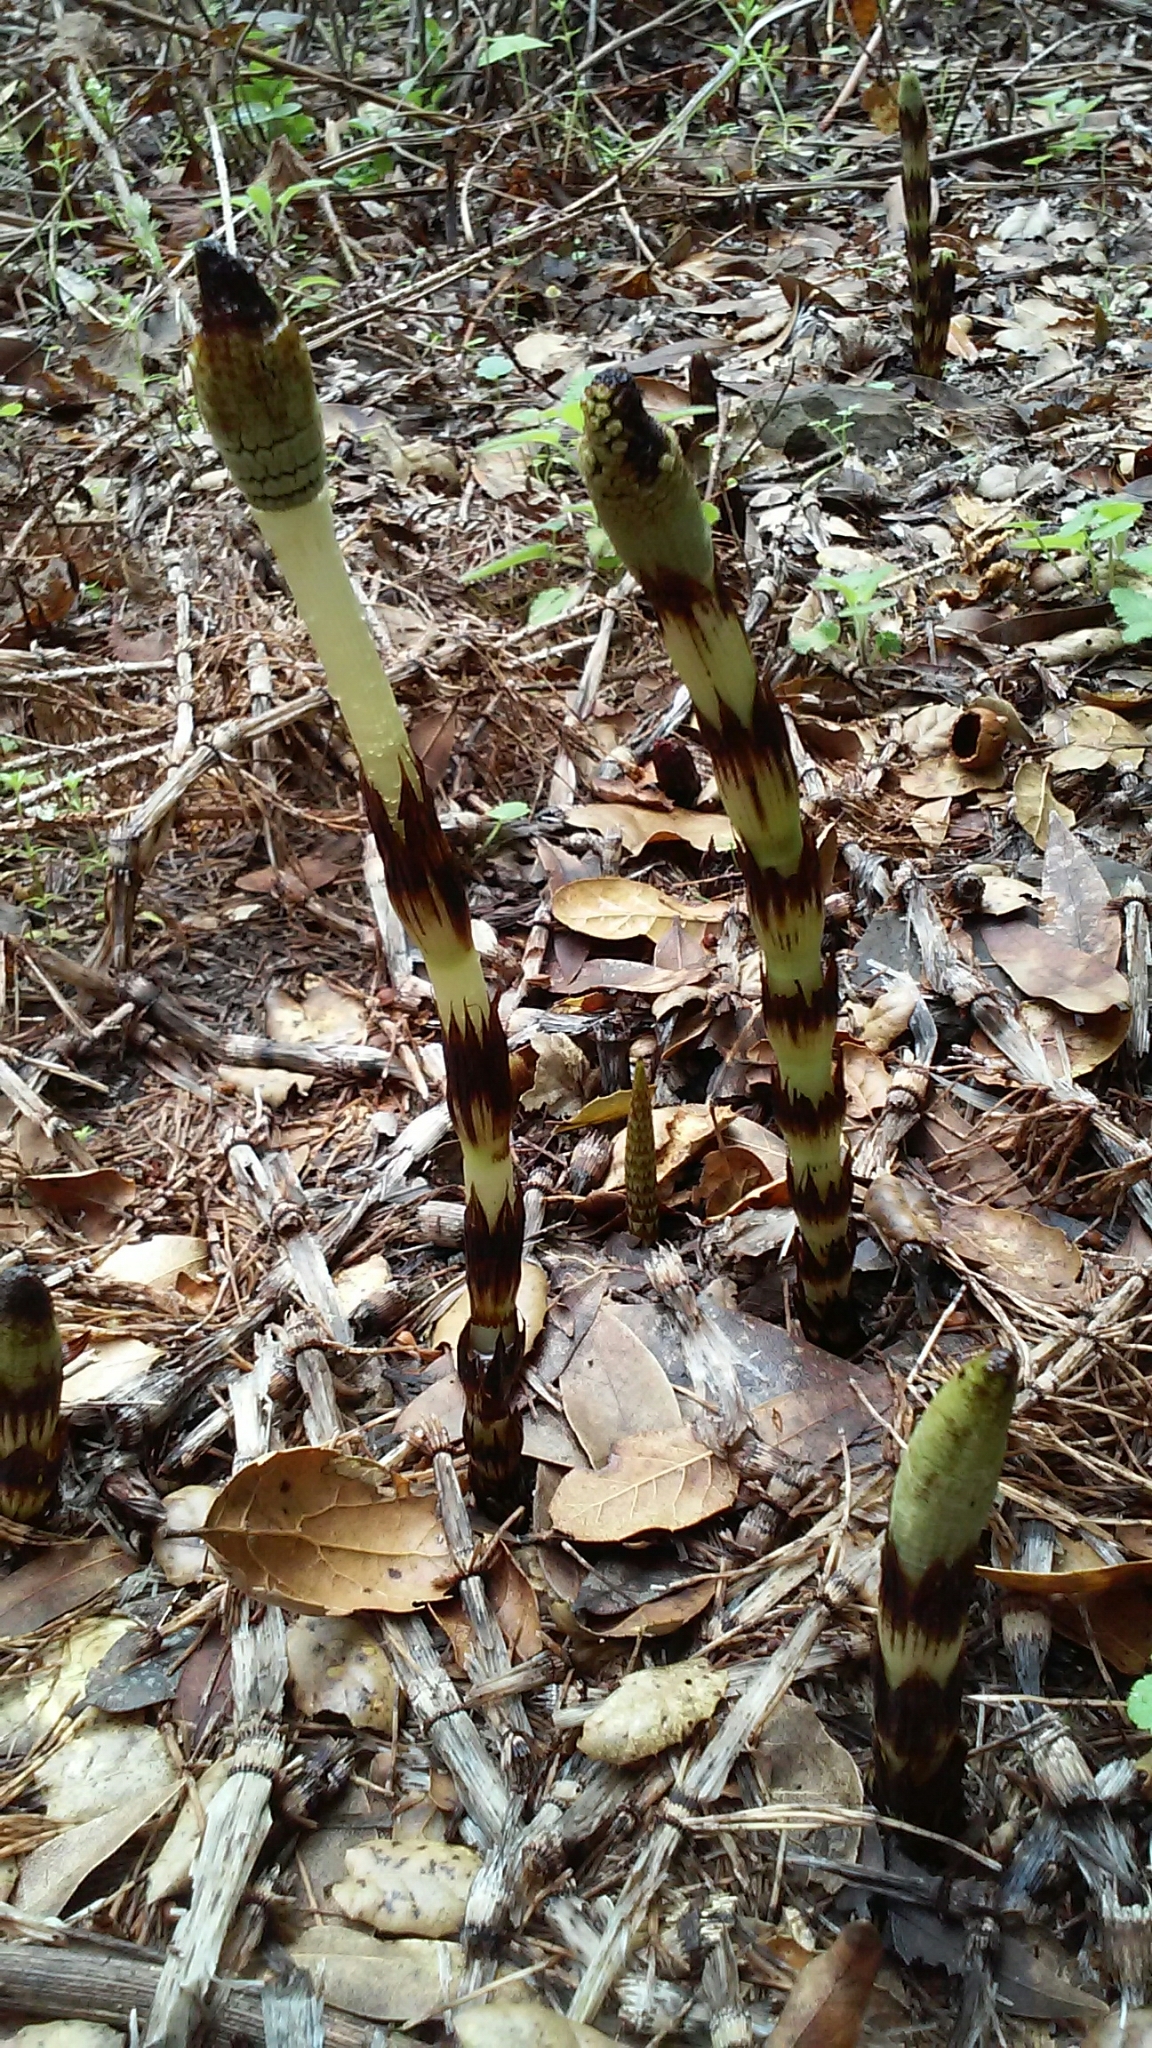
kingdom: Plantae
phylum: Tracheophyta
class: Polypodiopsida
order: Equisetales
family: Equisetaceae
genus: Equisetum
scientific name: Equisetum telmateia
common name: Great horsetail
